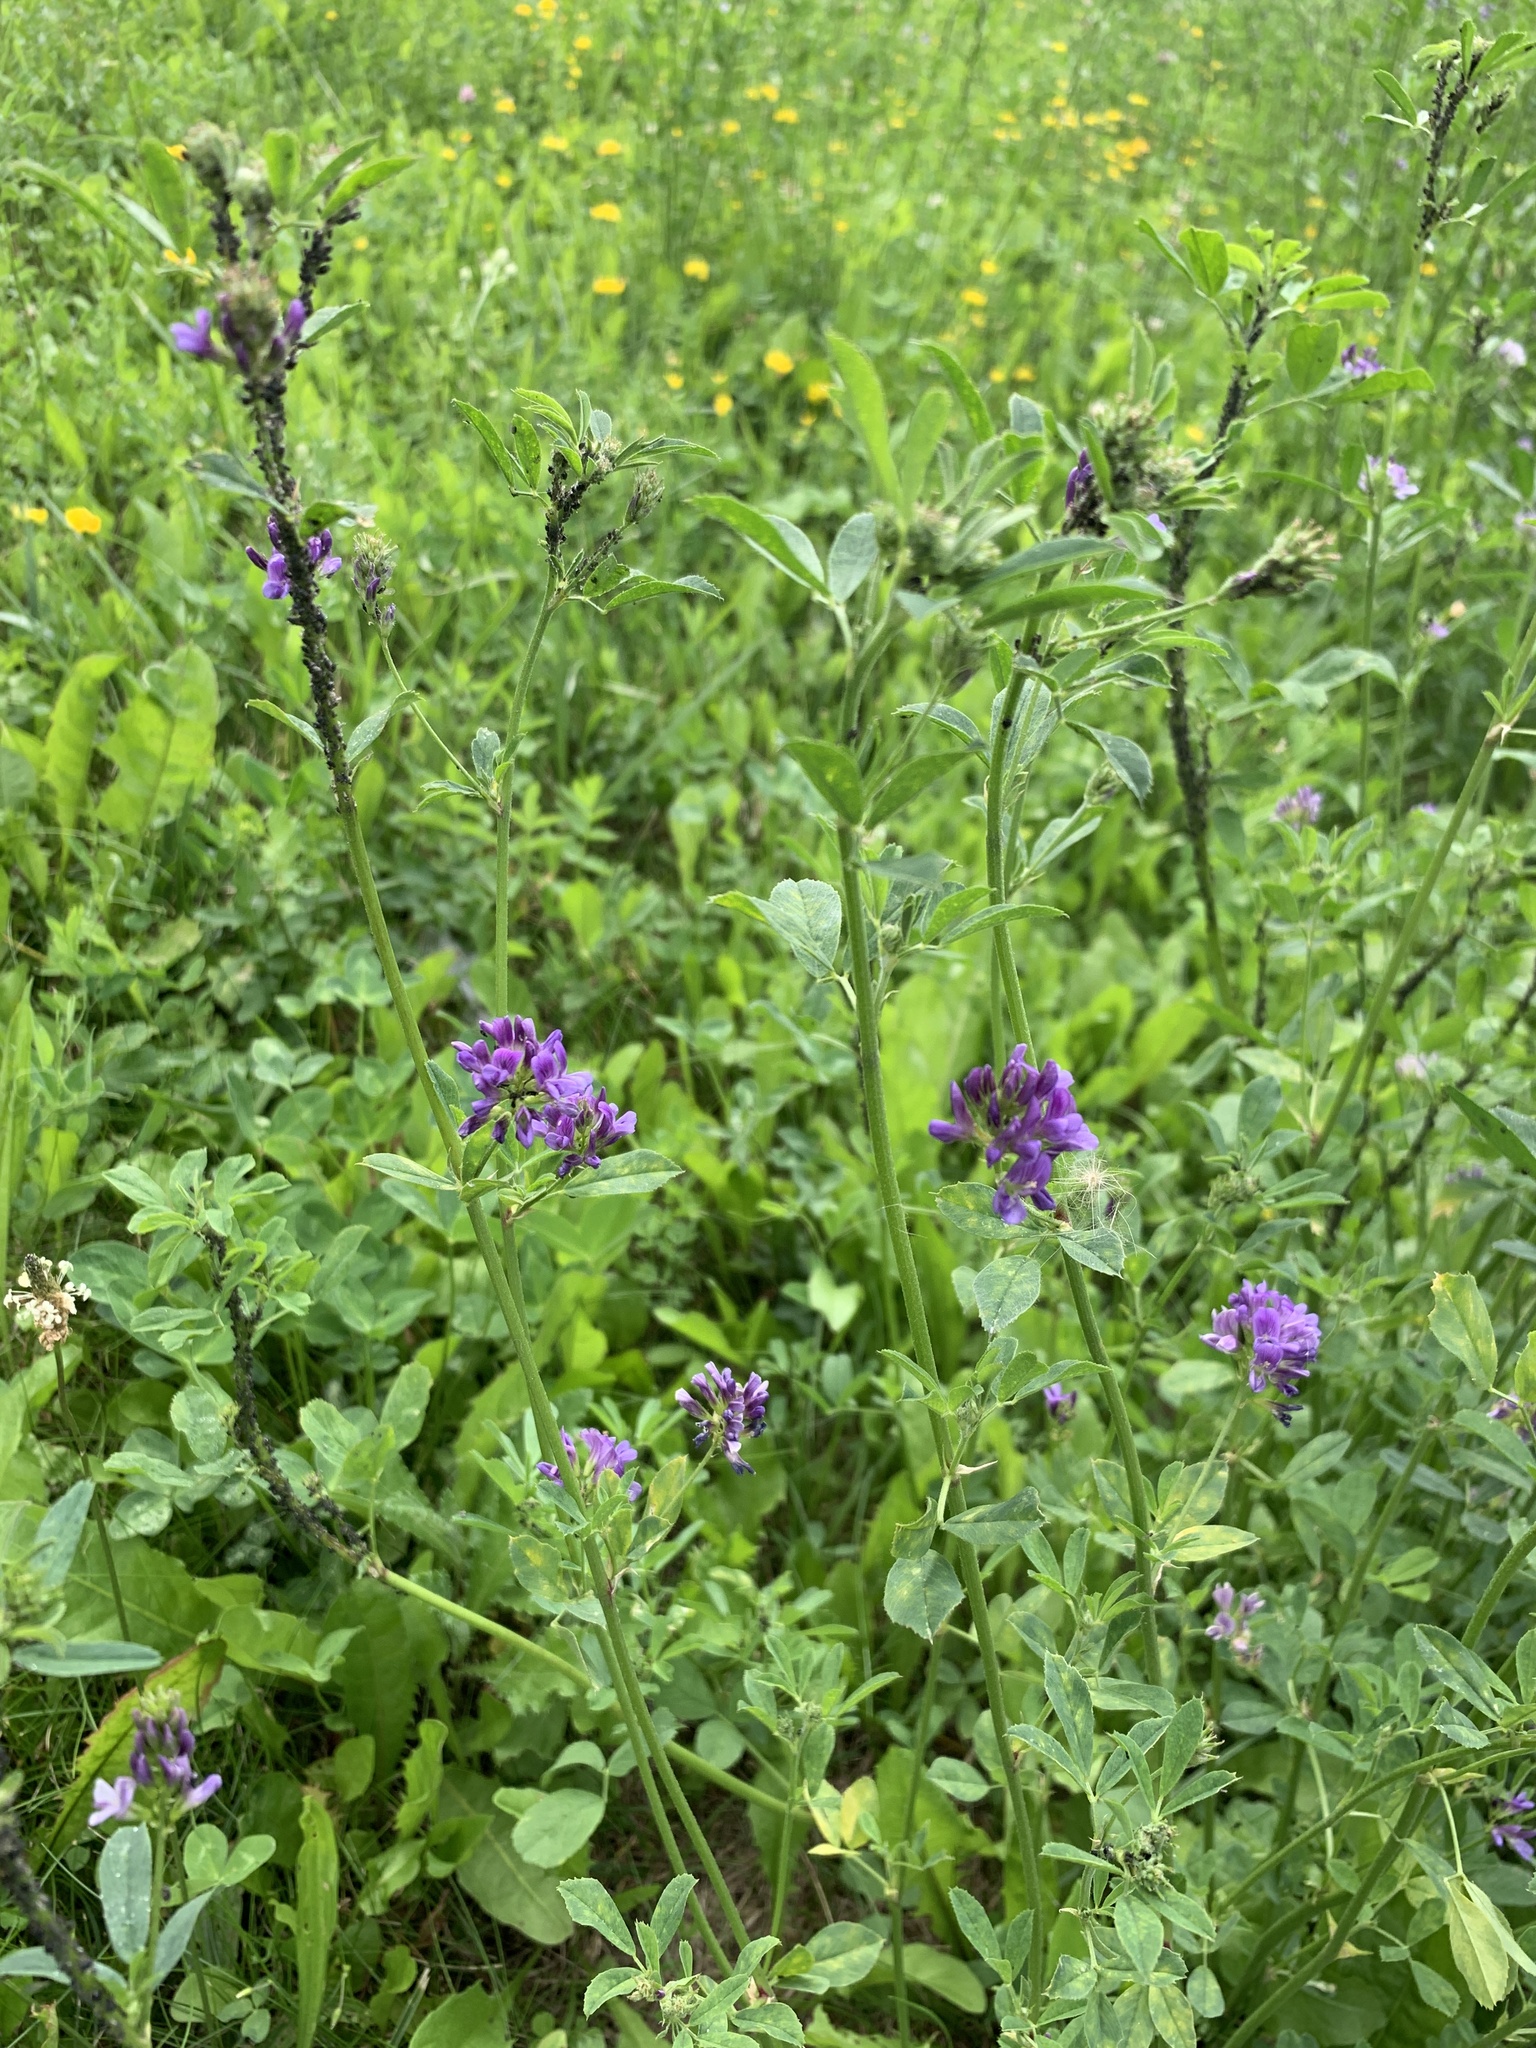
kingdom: Plantae
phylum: Tracheophyta
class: Magnoliopsida
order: Fabales
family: Fabaceae
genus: Medicago
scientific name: Medicago sativa
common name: Alfalfa
